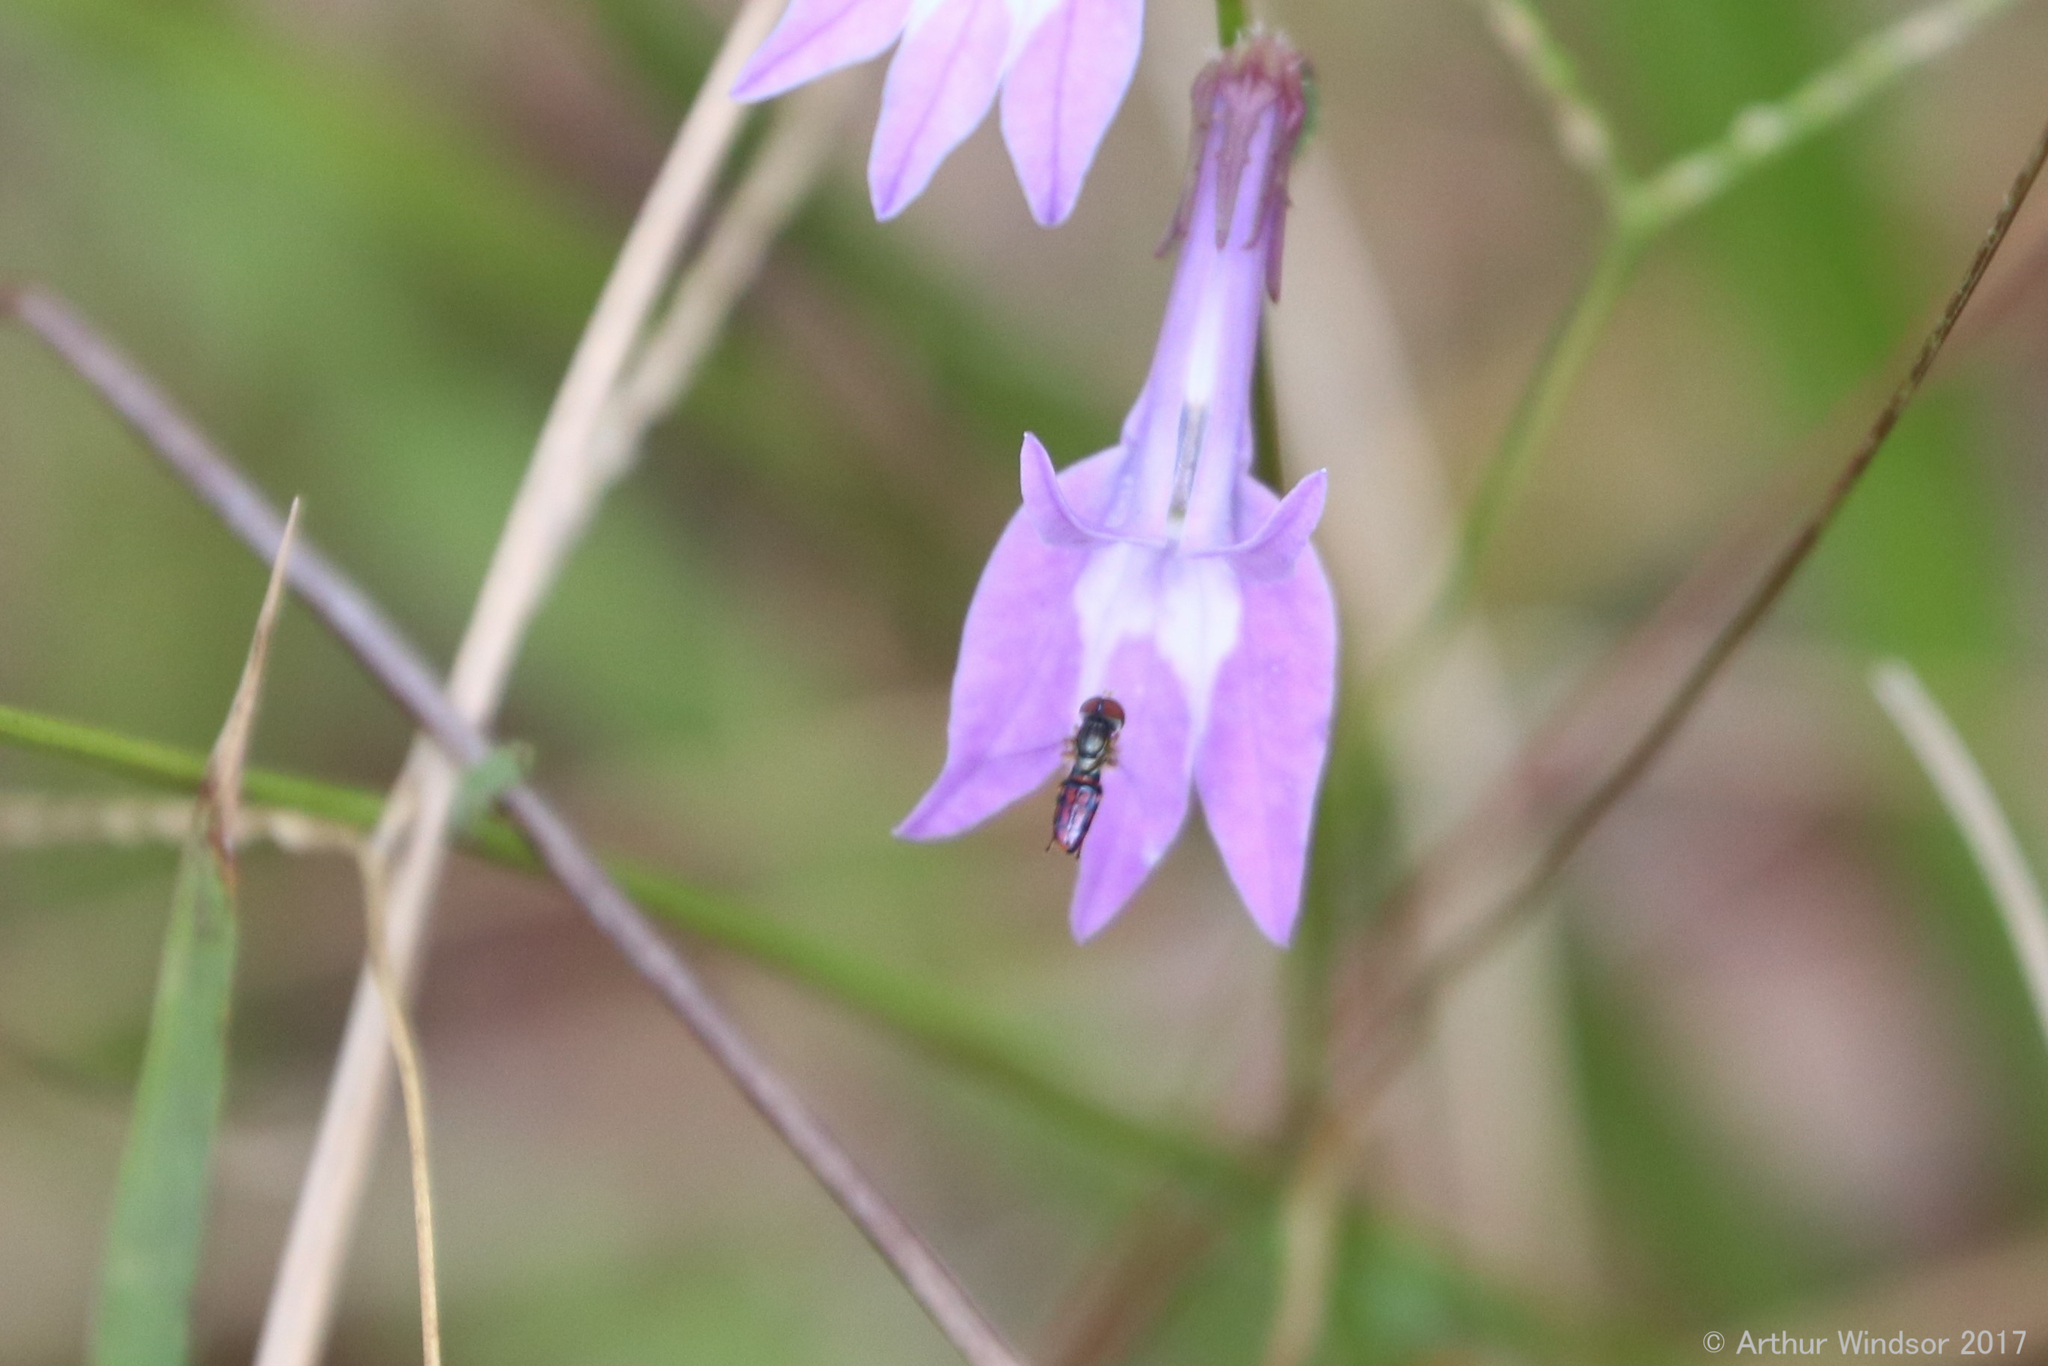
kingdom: Animalia
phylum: Arthropoda
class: Insecta
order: Diptera
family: Syrphidae
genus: Toxomerus
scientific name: Toxomerus boscii
